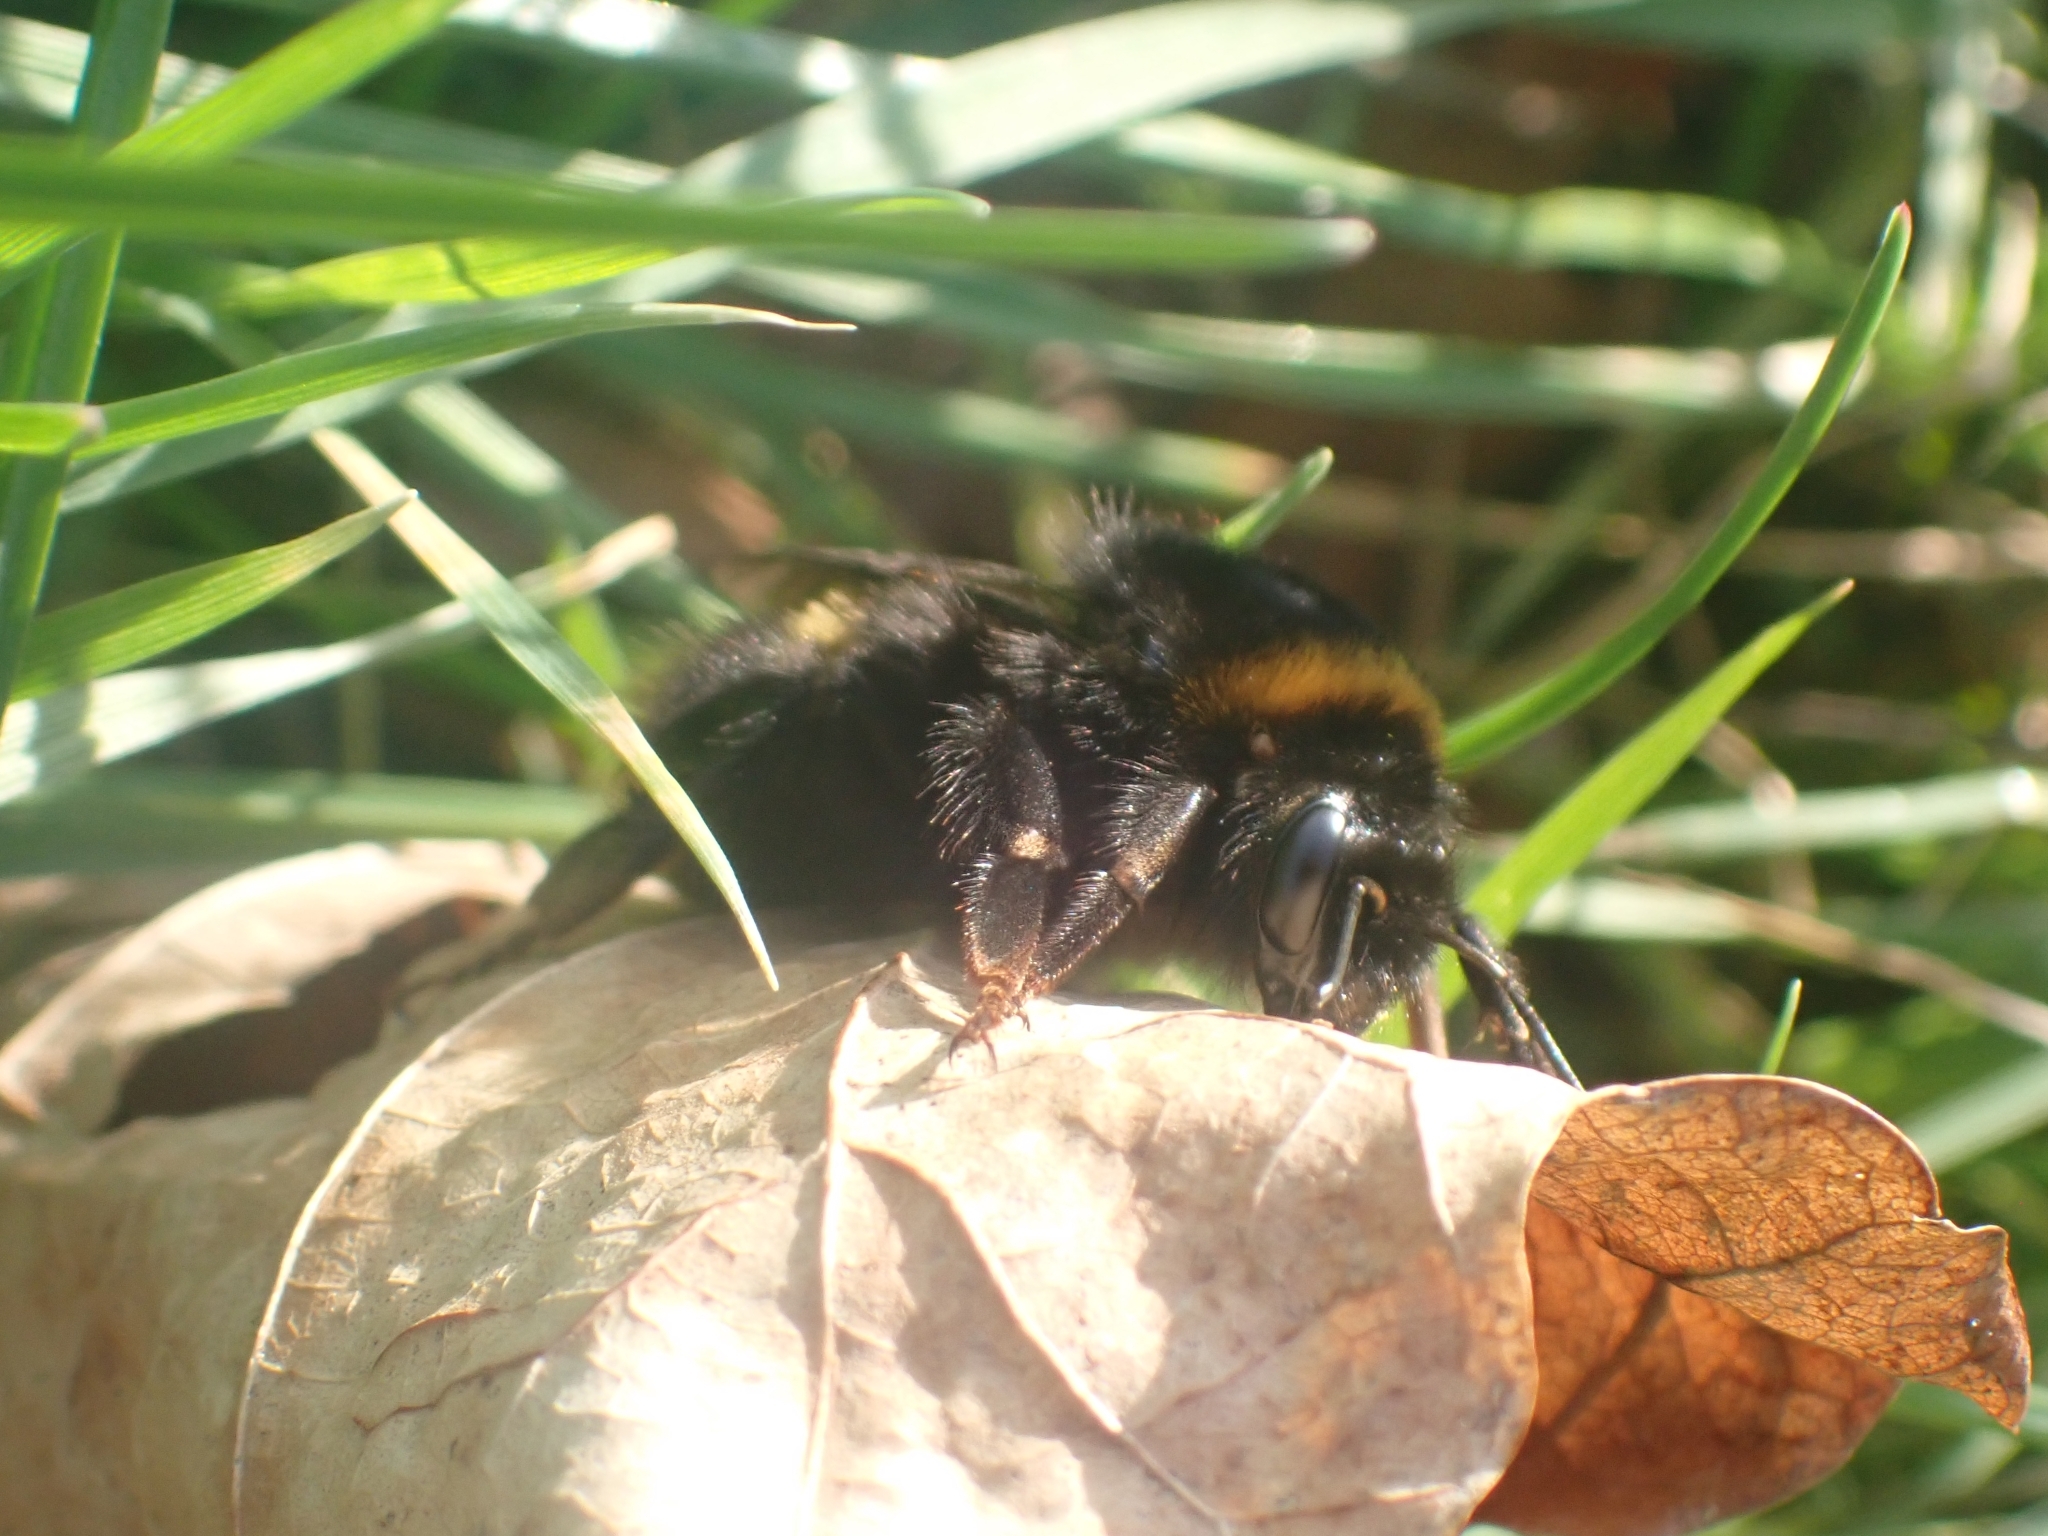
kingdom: Animalia
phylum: Arthropoda
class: Insecta
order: Hymenoptera
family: Apidae
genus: Bombus
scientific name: Bombus terrestris
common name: Buff-tailed bumblebee
